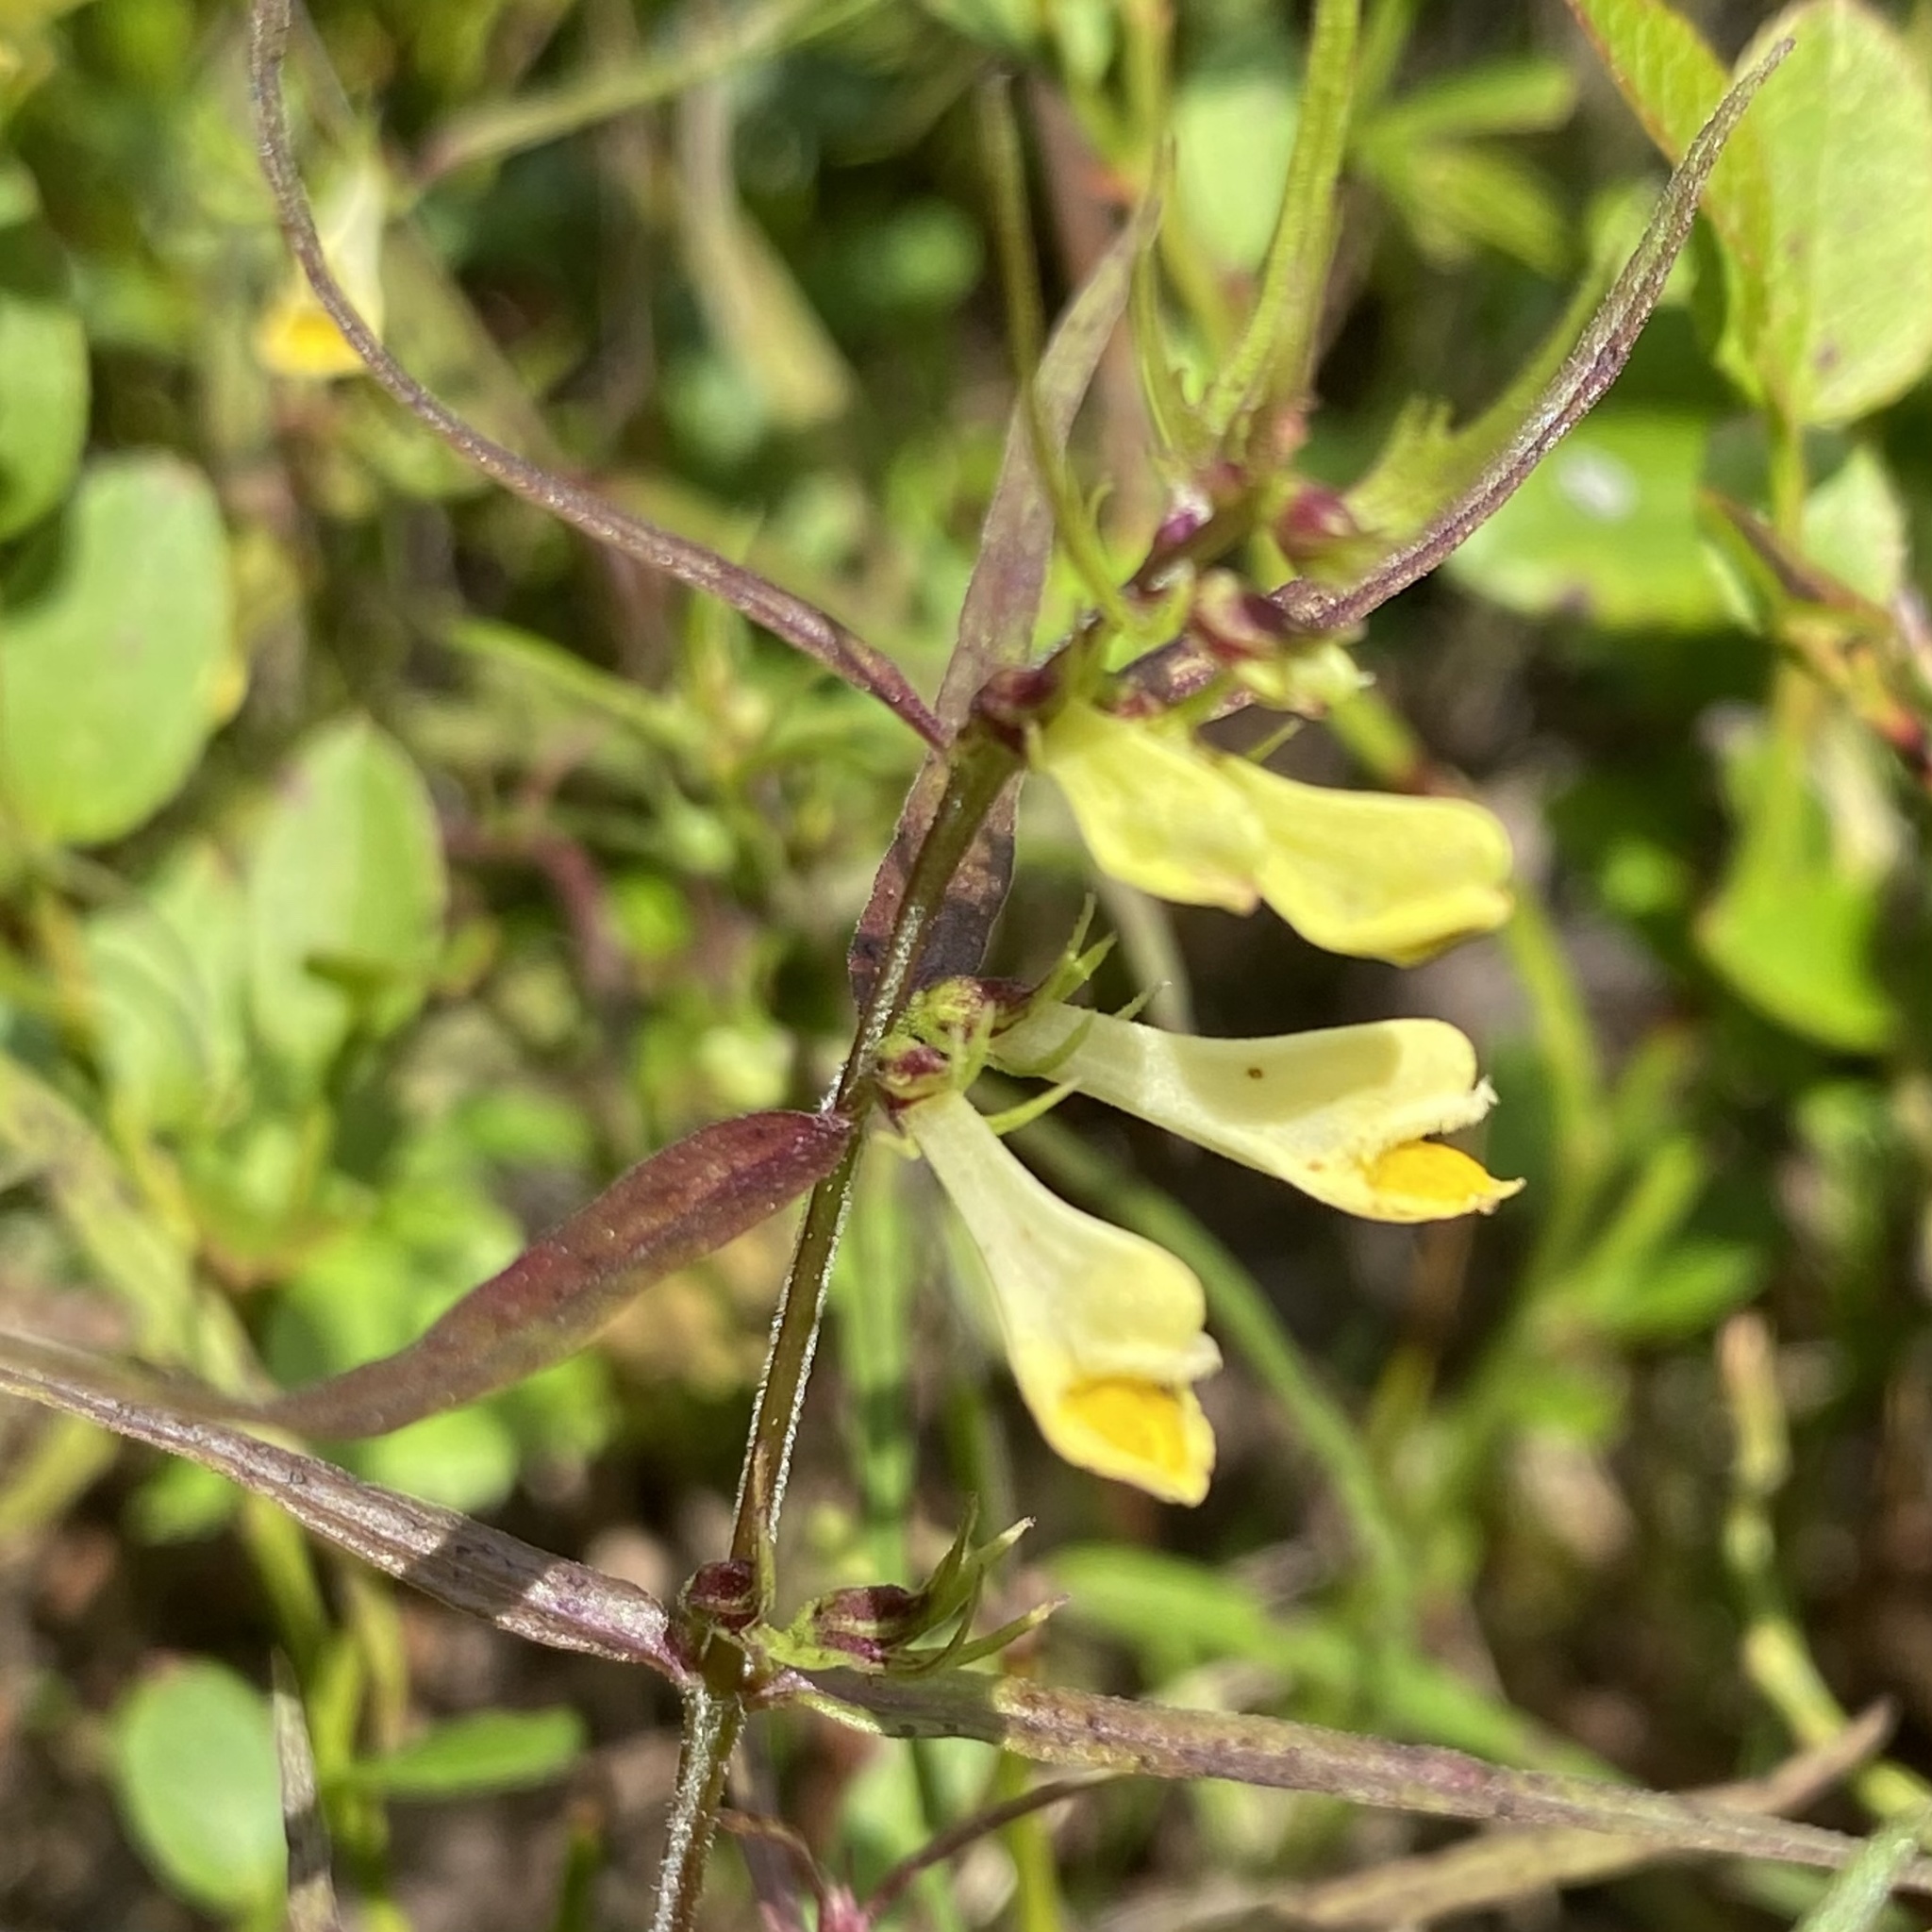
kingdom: Plantae
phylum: Tracheophyta
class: Magnoliopsida
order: Lamiales
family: Orobanchaceae
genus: Melampyrum
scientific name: Melampyrum pratense
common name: Common cow-wheat
